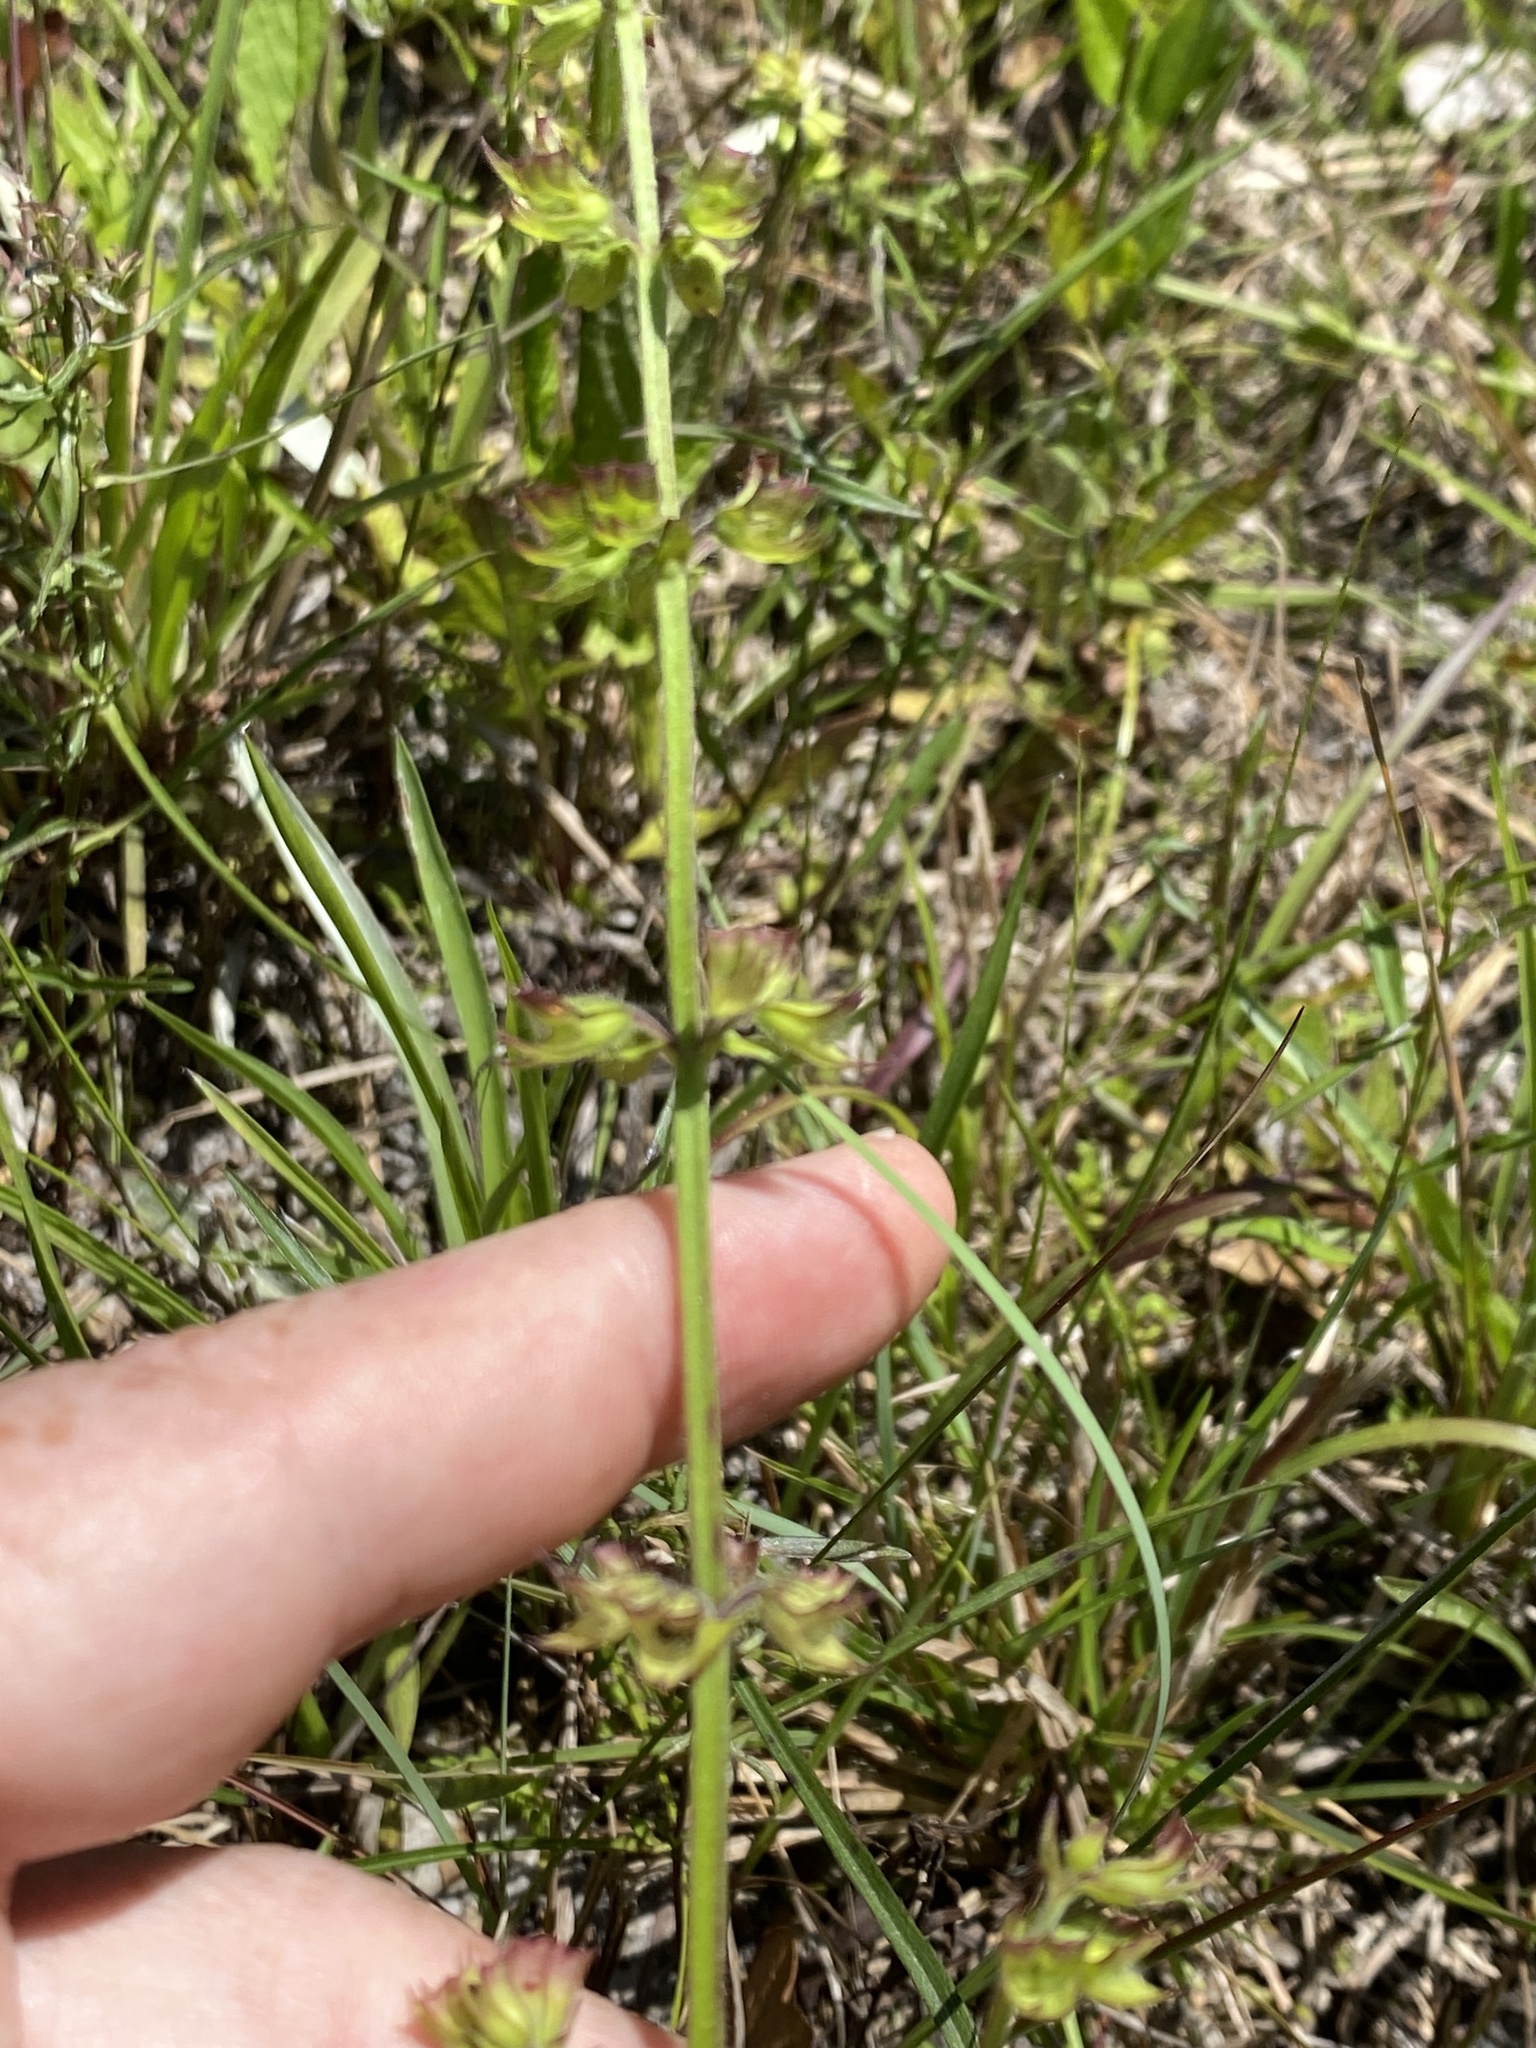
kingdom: Plantae
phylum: Tracheophyta
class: Magnoliopsida
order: Lamiales
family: Lamiaceae
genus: Salvia
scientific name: Salvia lyrata
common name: Cancerweed
